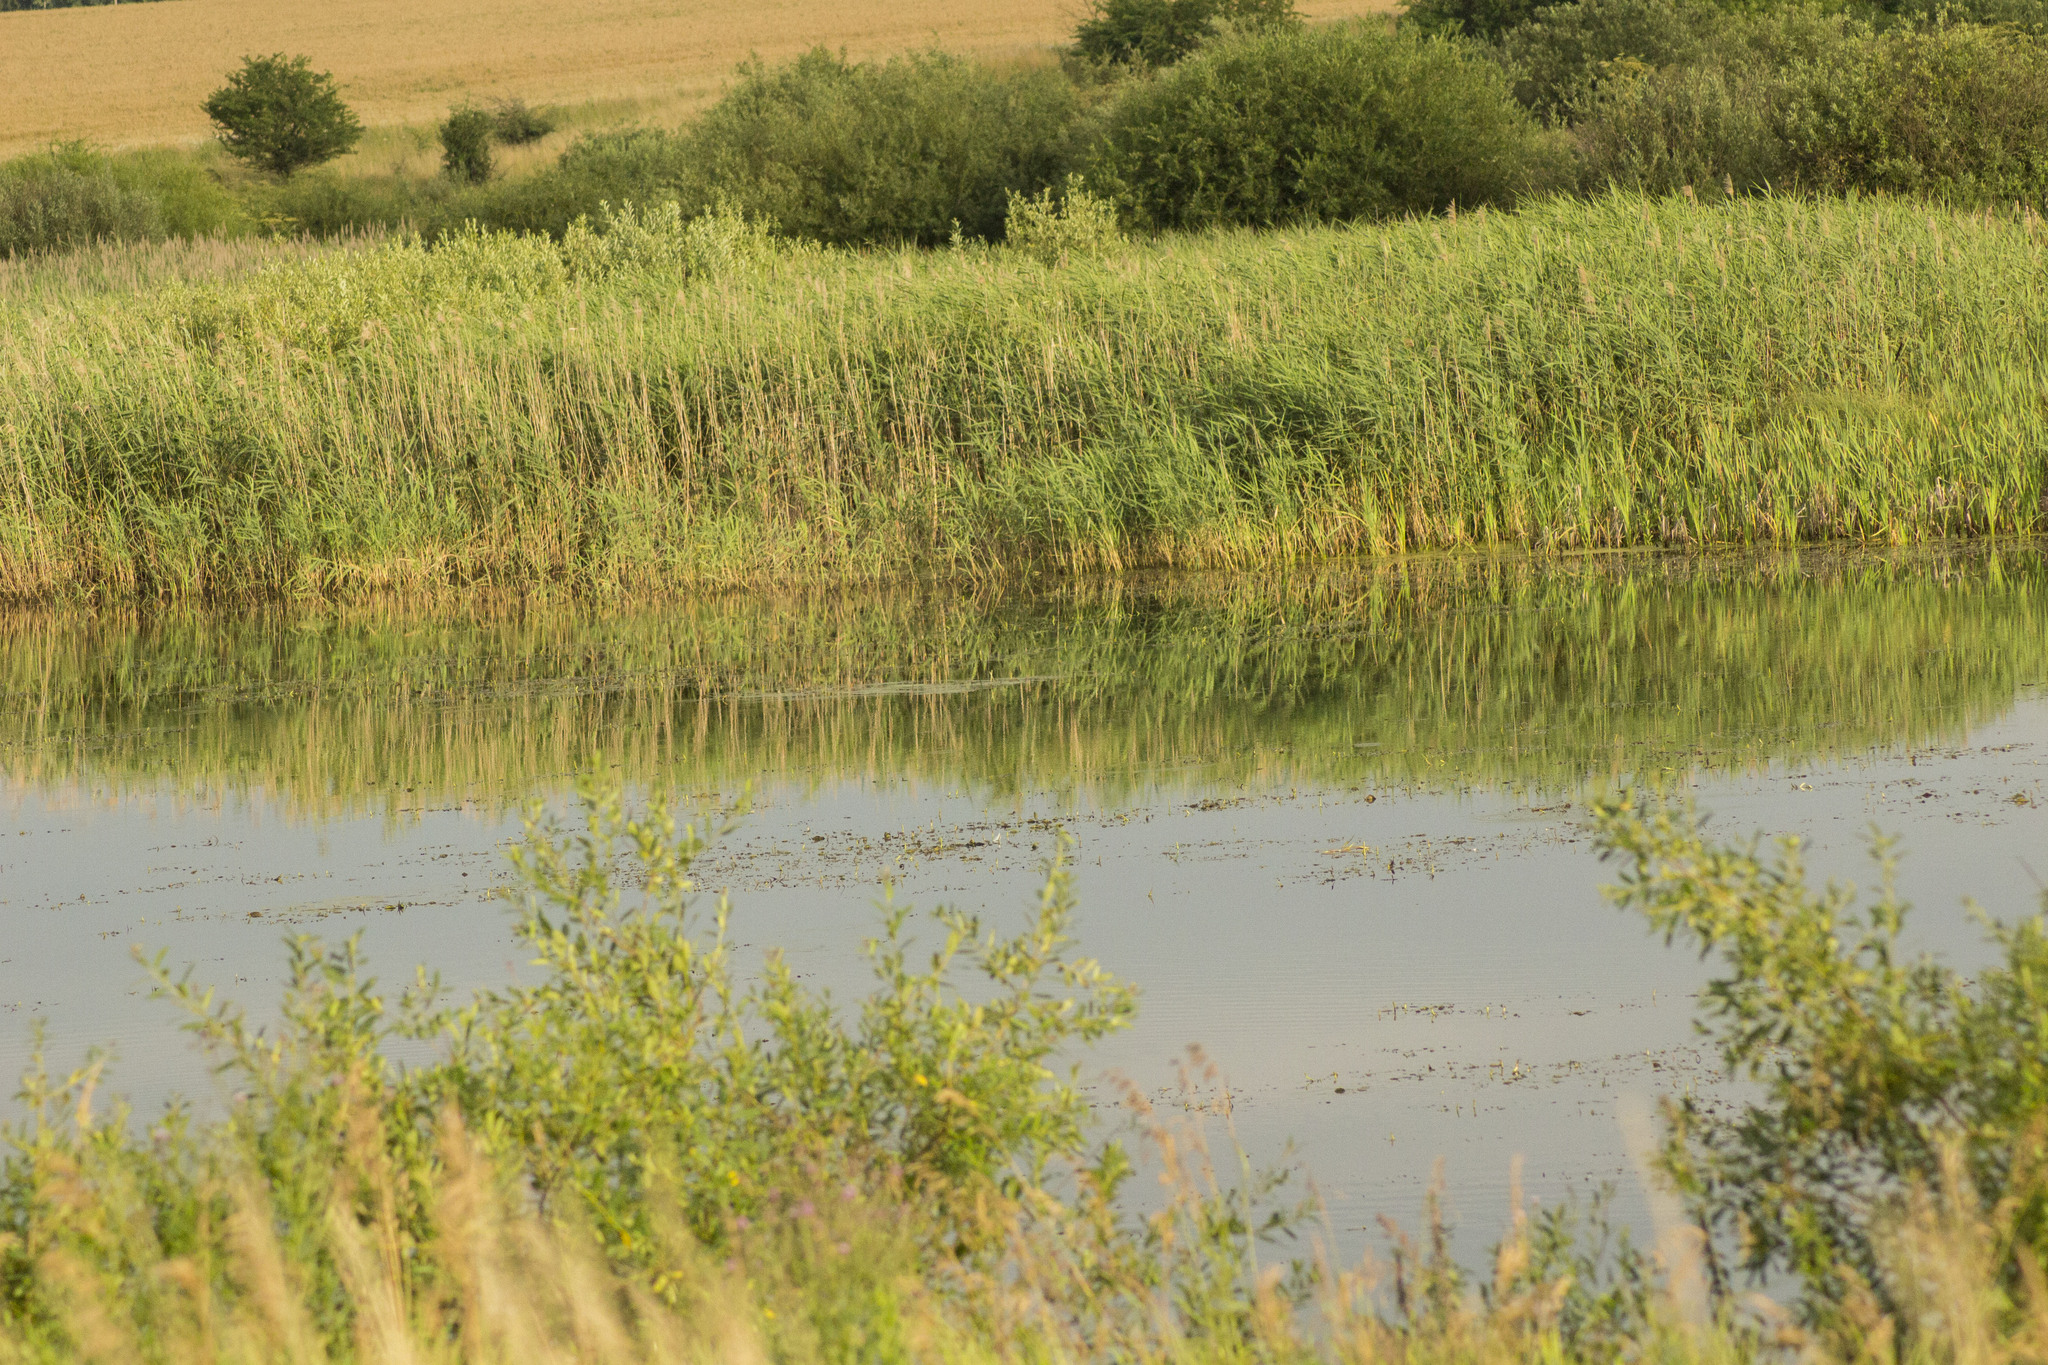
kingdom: Plantae
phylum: Tracheophyta
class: Liliopsida
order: Poales
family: Poaceae
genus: Phragmites
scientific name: Phragmites australis
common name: Common reed
